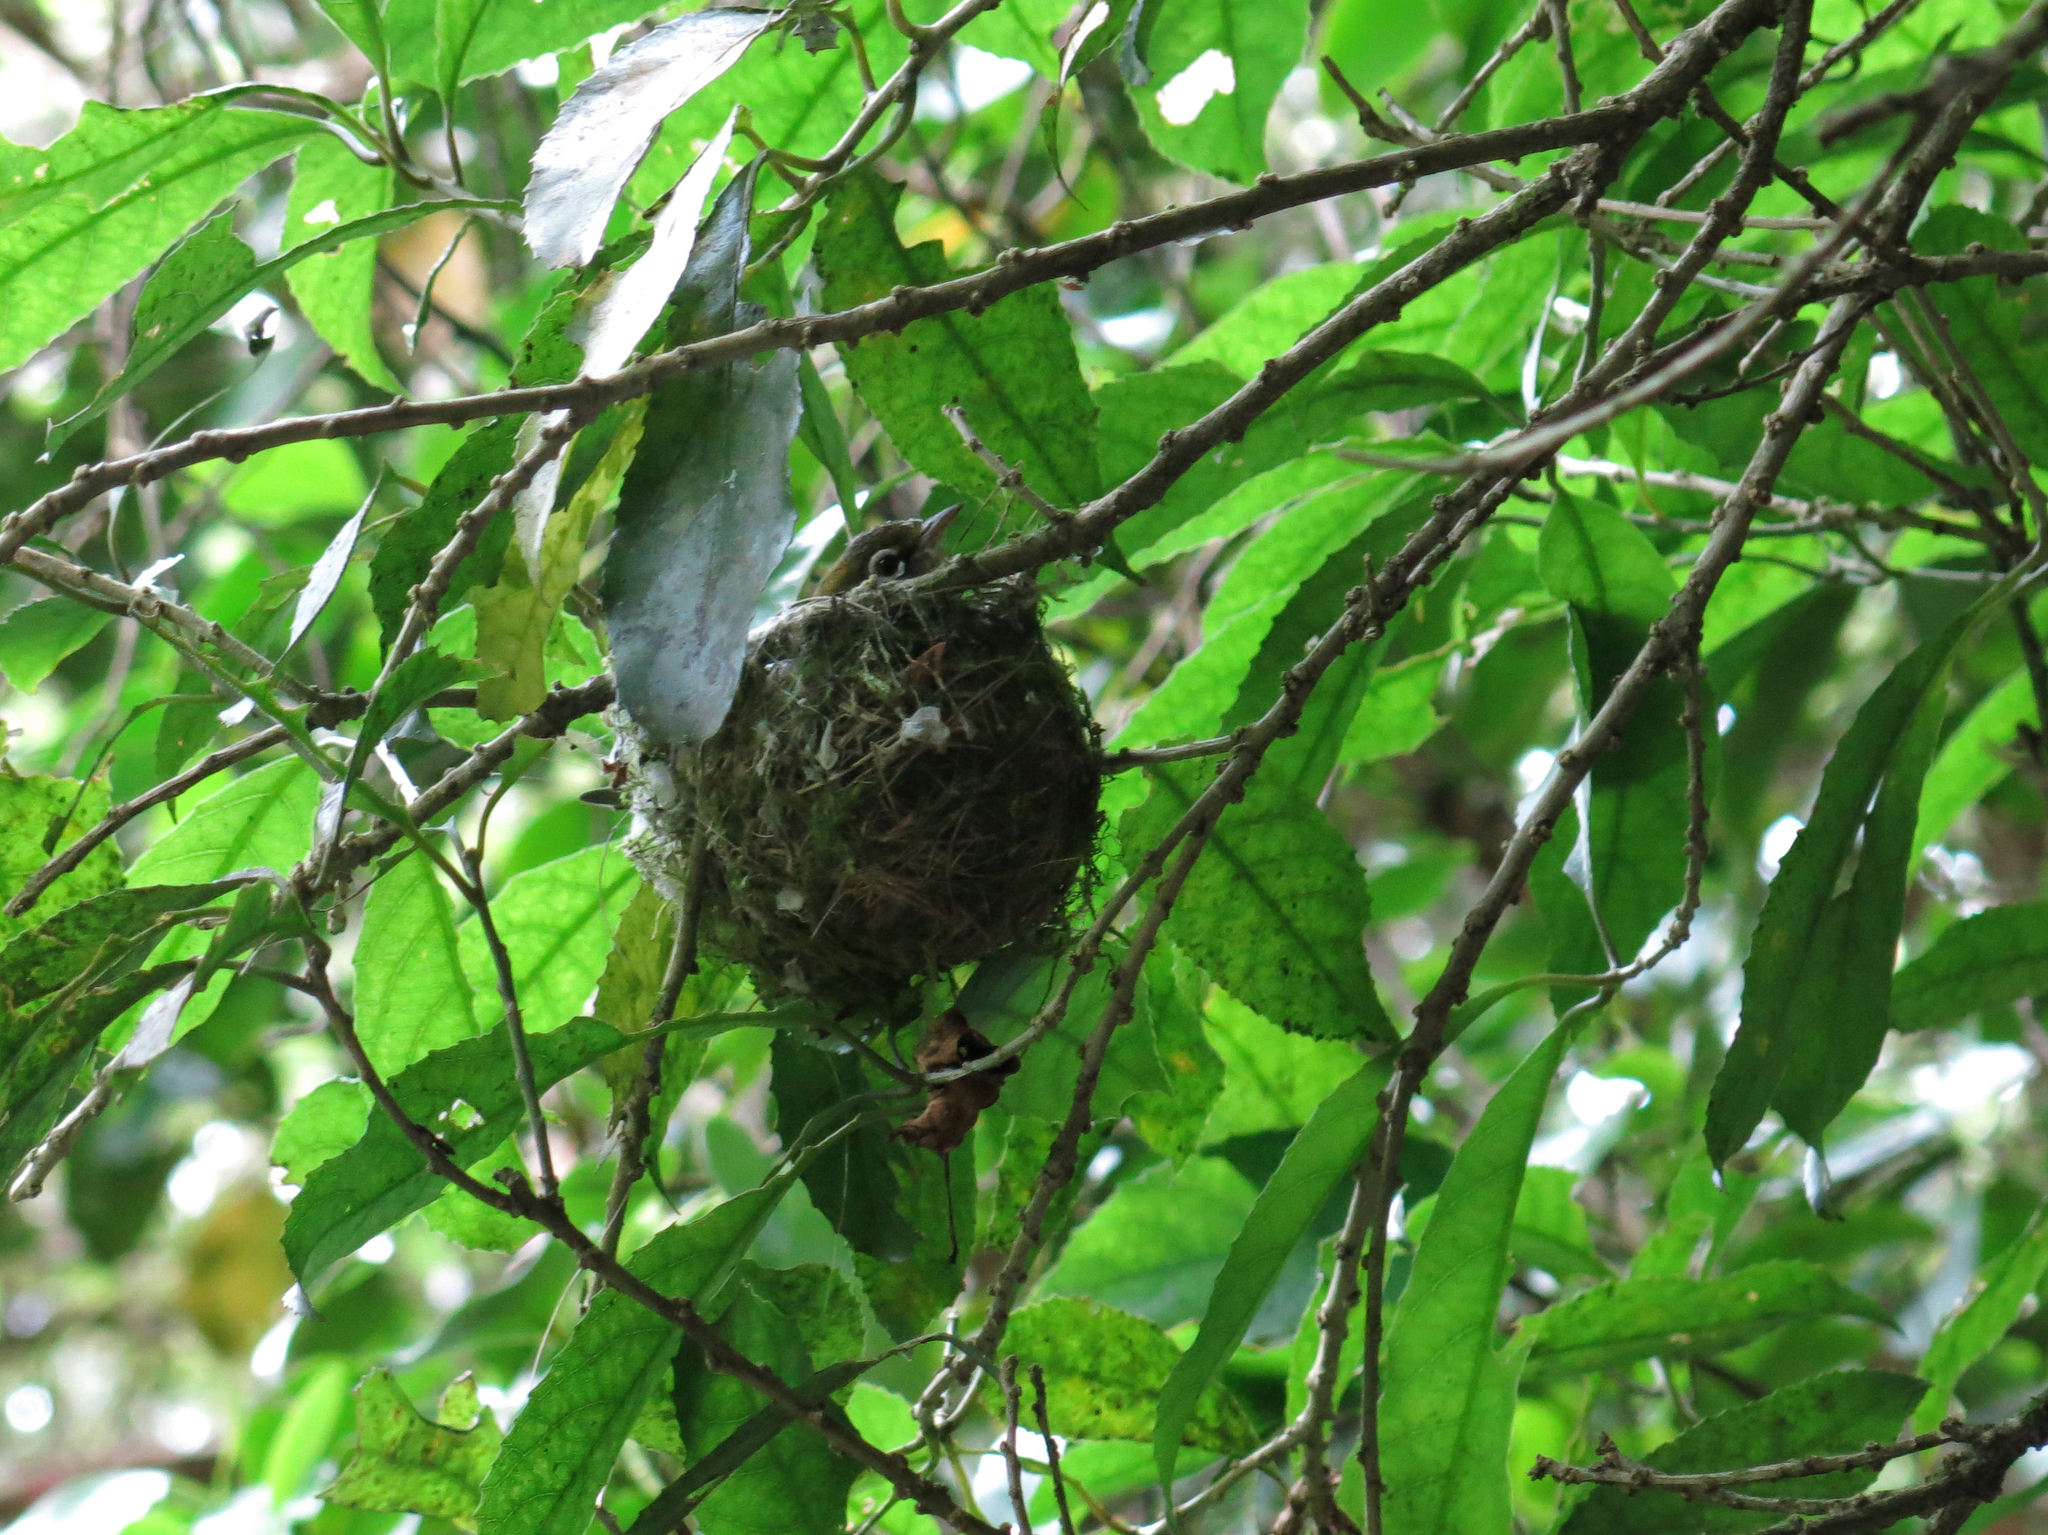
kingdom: Animalia
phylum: Chordata
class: Aves
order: Passeriformes
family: Zosteropidae
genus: Zosterops
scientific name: Zosterops lateralis
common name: Silvereye
